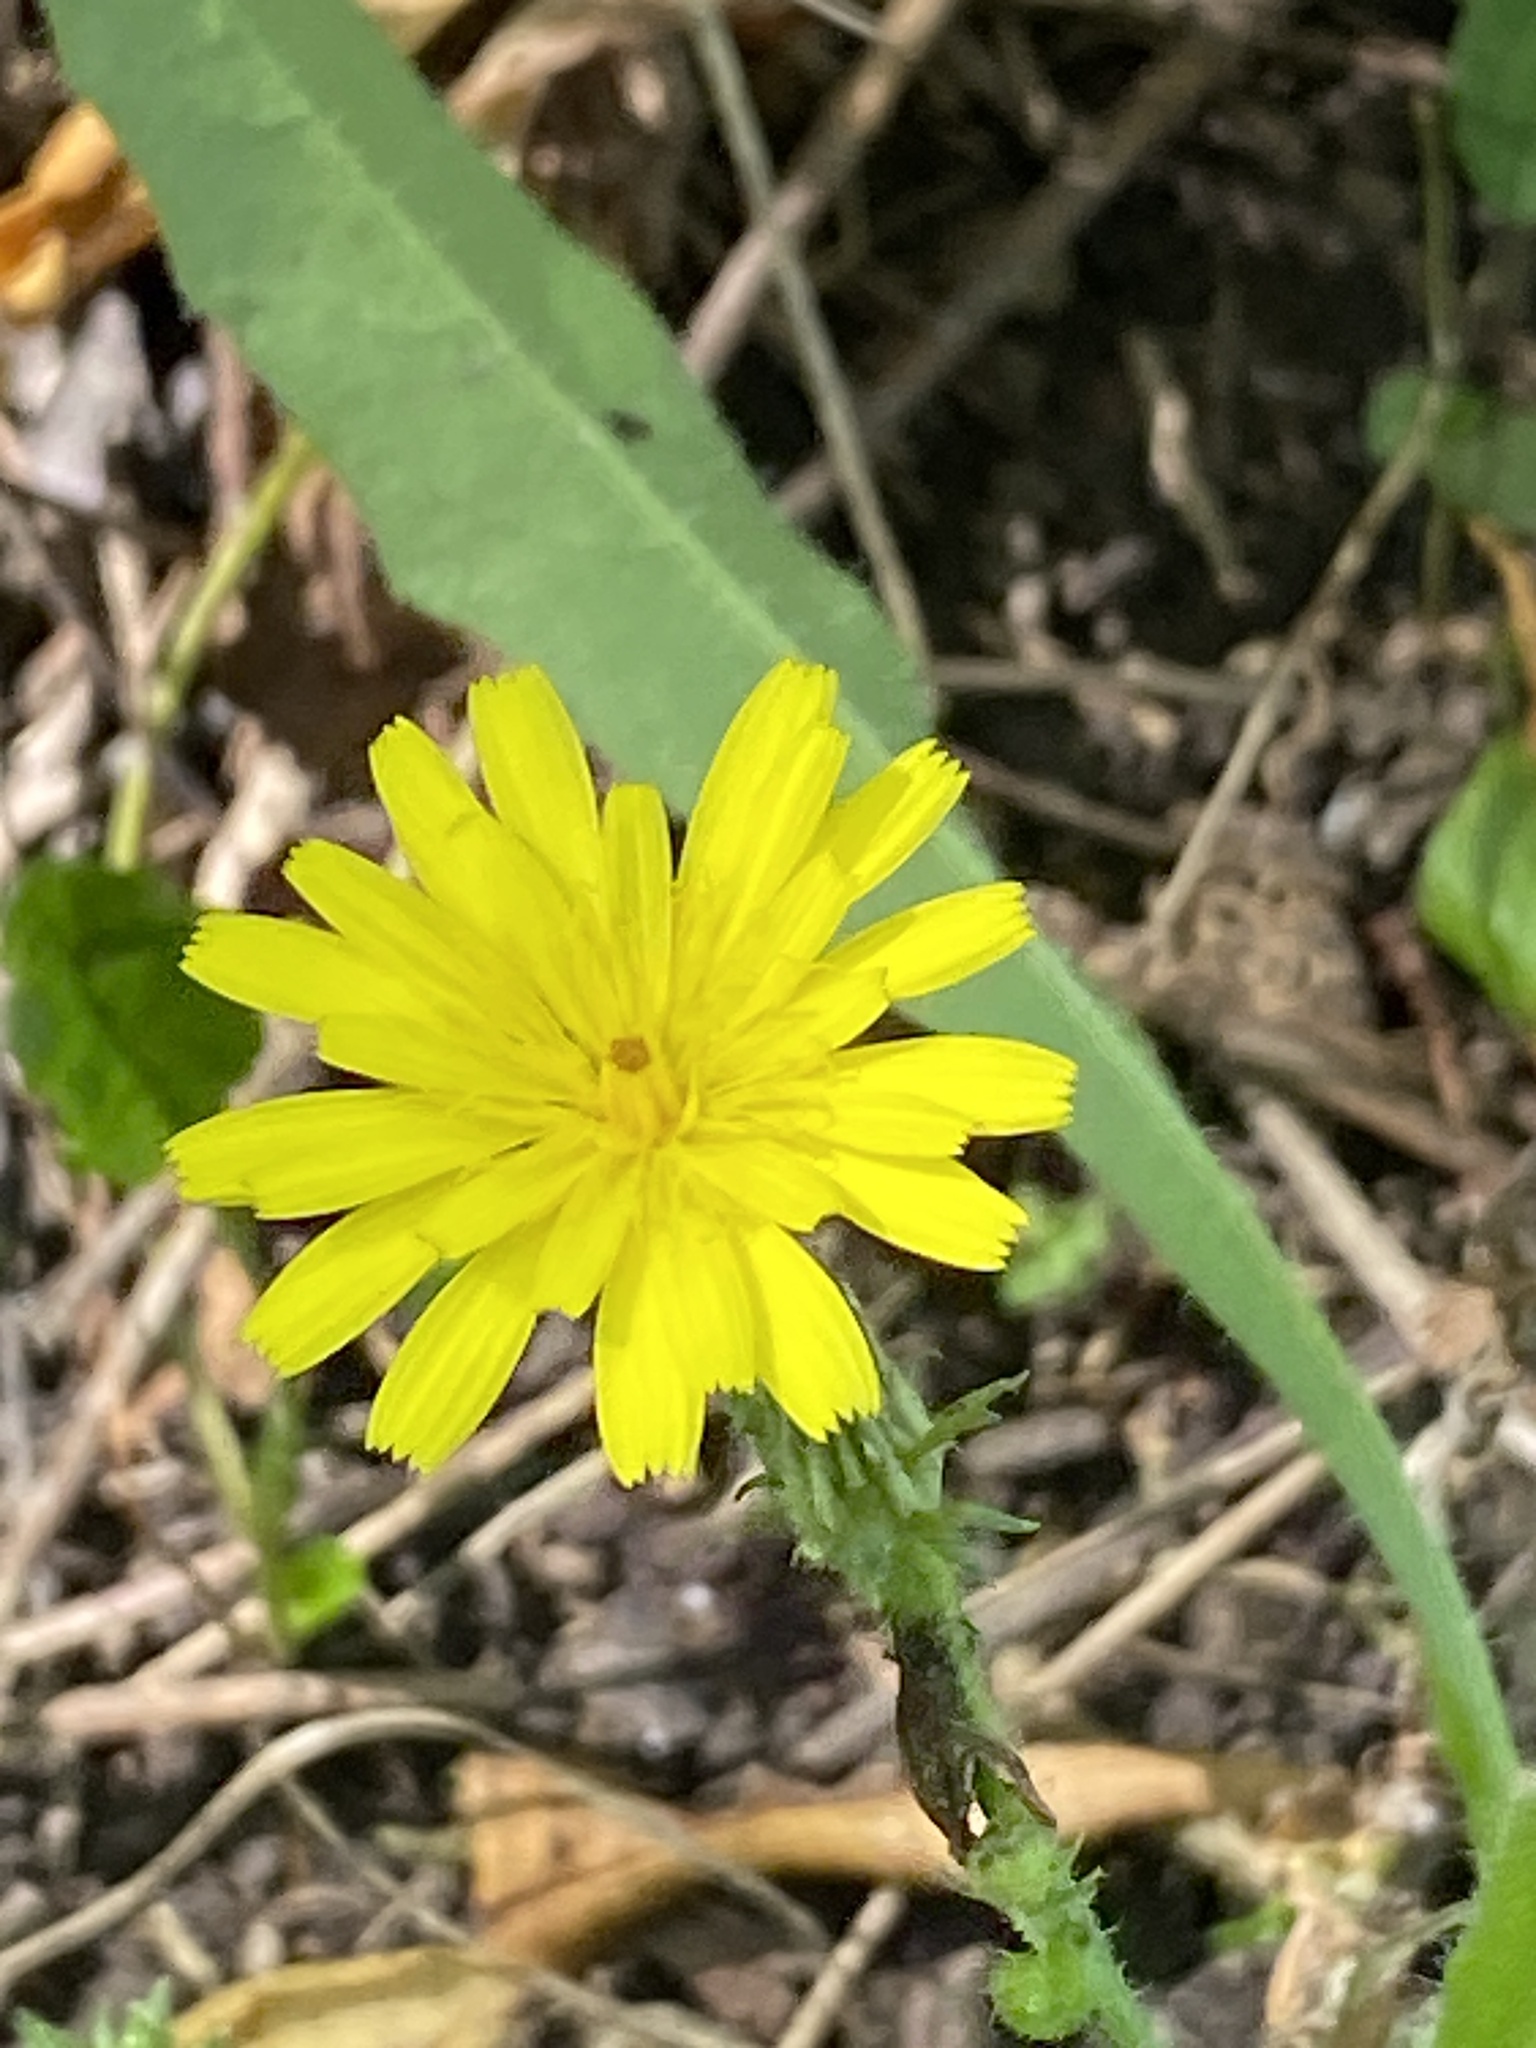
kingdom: Plantae
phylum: Tracheophyta
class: Magnoliopsida
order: Asterales
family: Asteraceae
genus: Picris
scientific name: Picris hieracioides
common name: Hawkweed oxtongue
